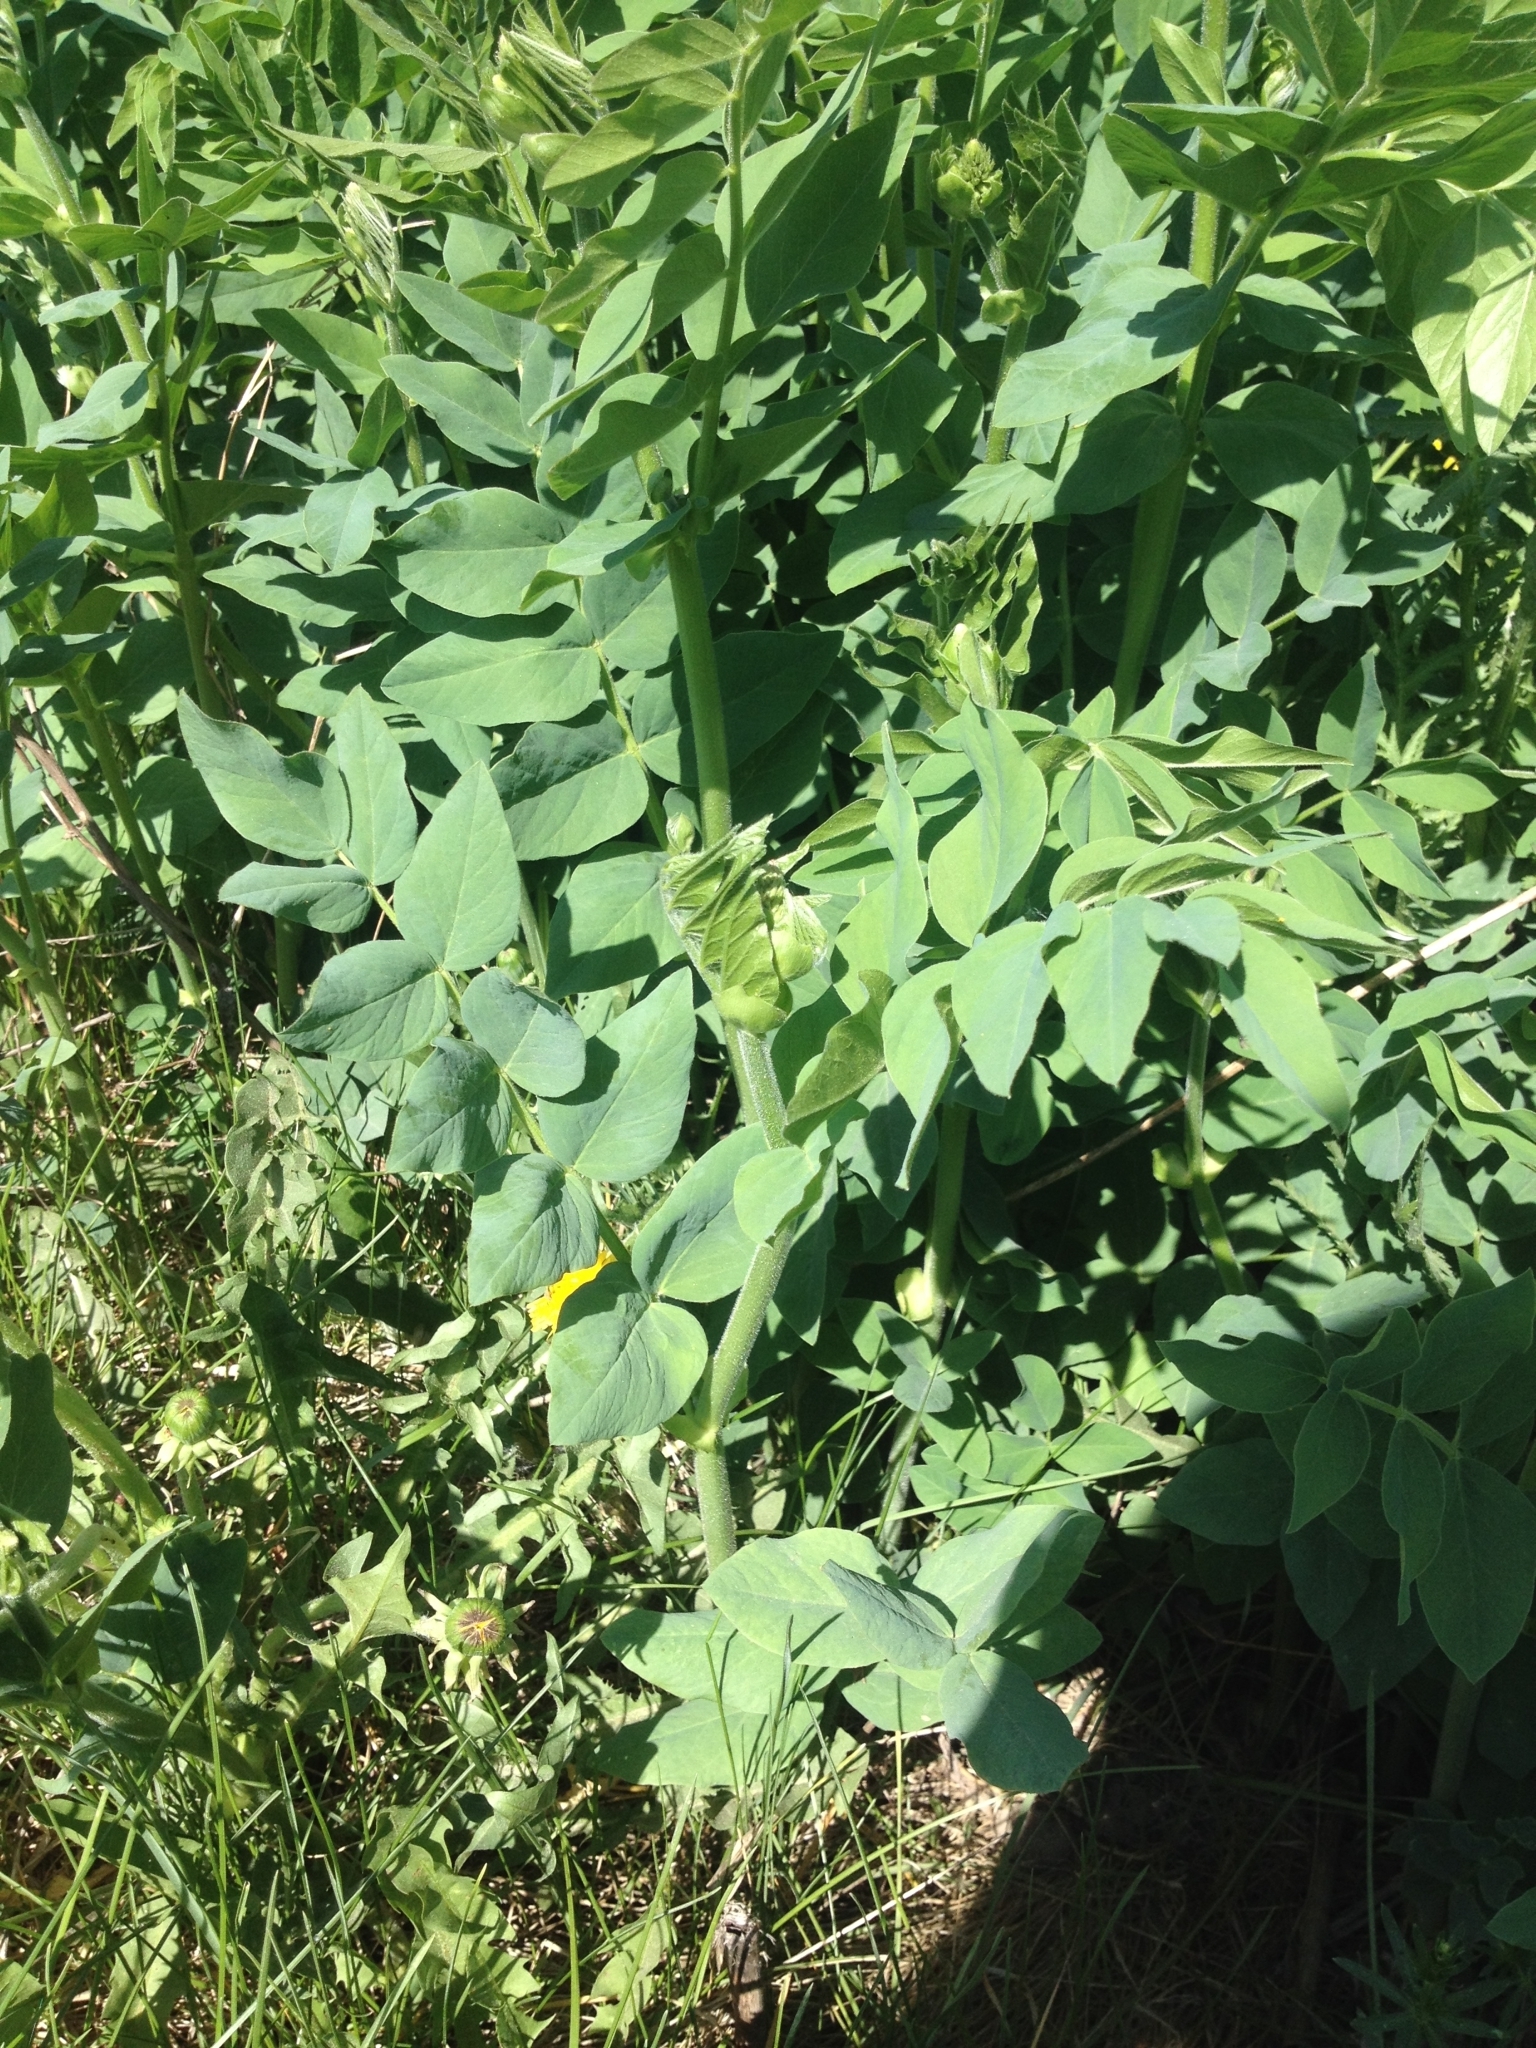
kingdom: Plantae
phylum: Tracheophyta
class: Magnoliopsida
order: Fabales
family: Fabaceae
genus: Galega
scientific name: Galega orientalis
